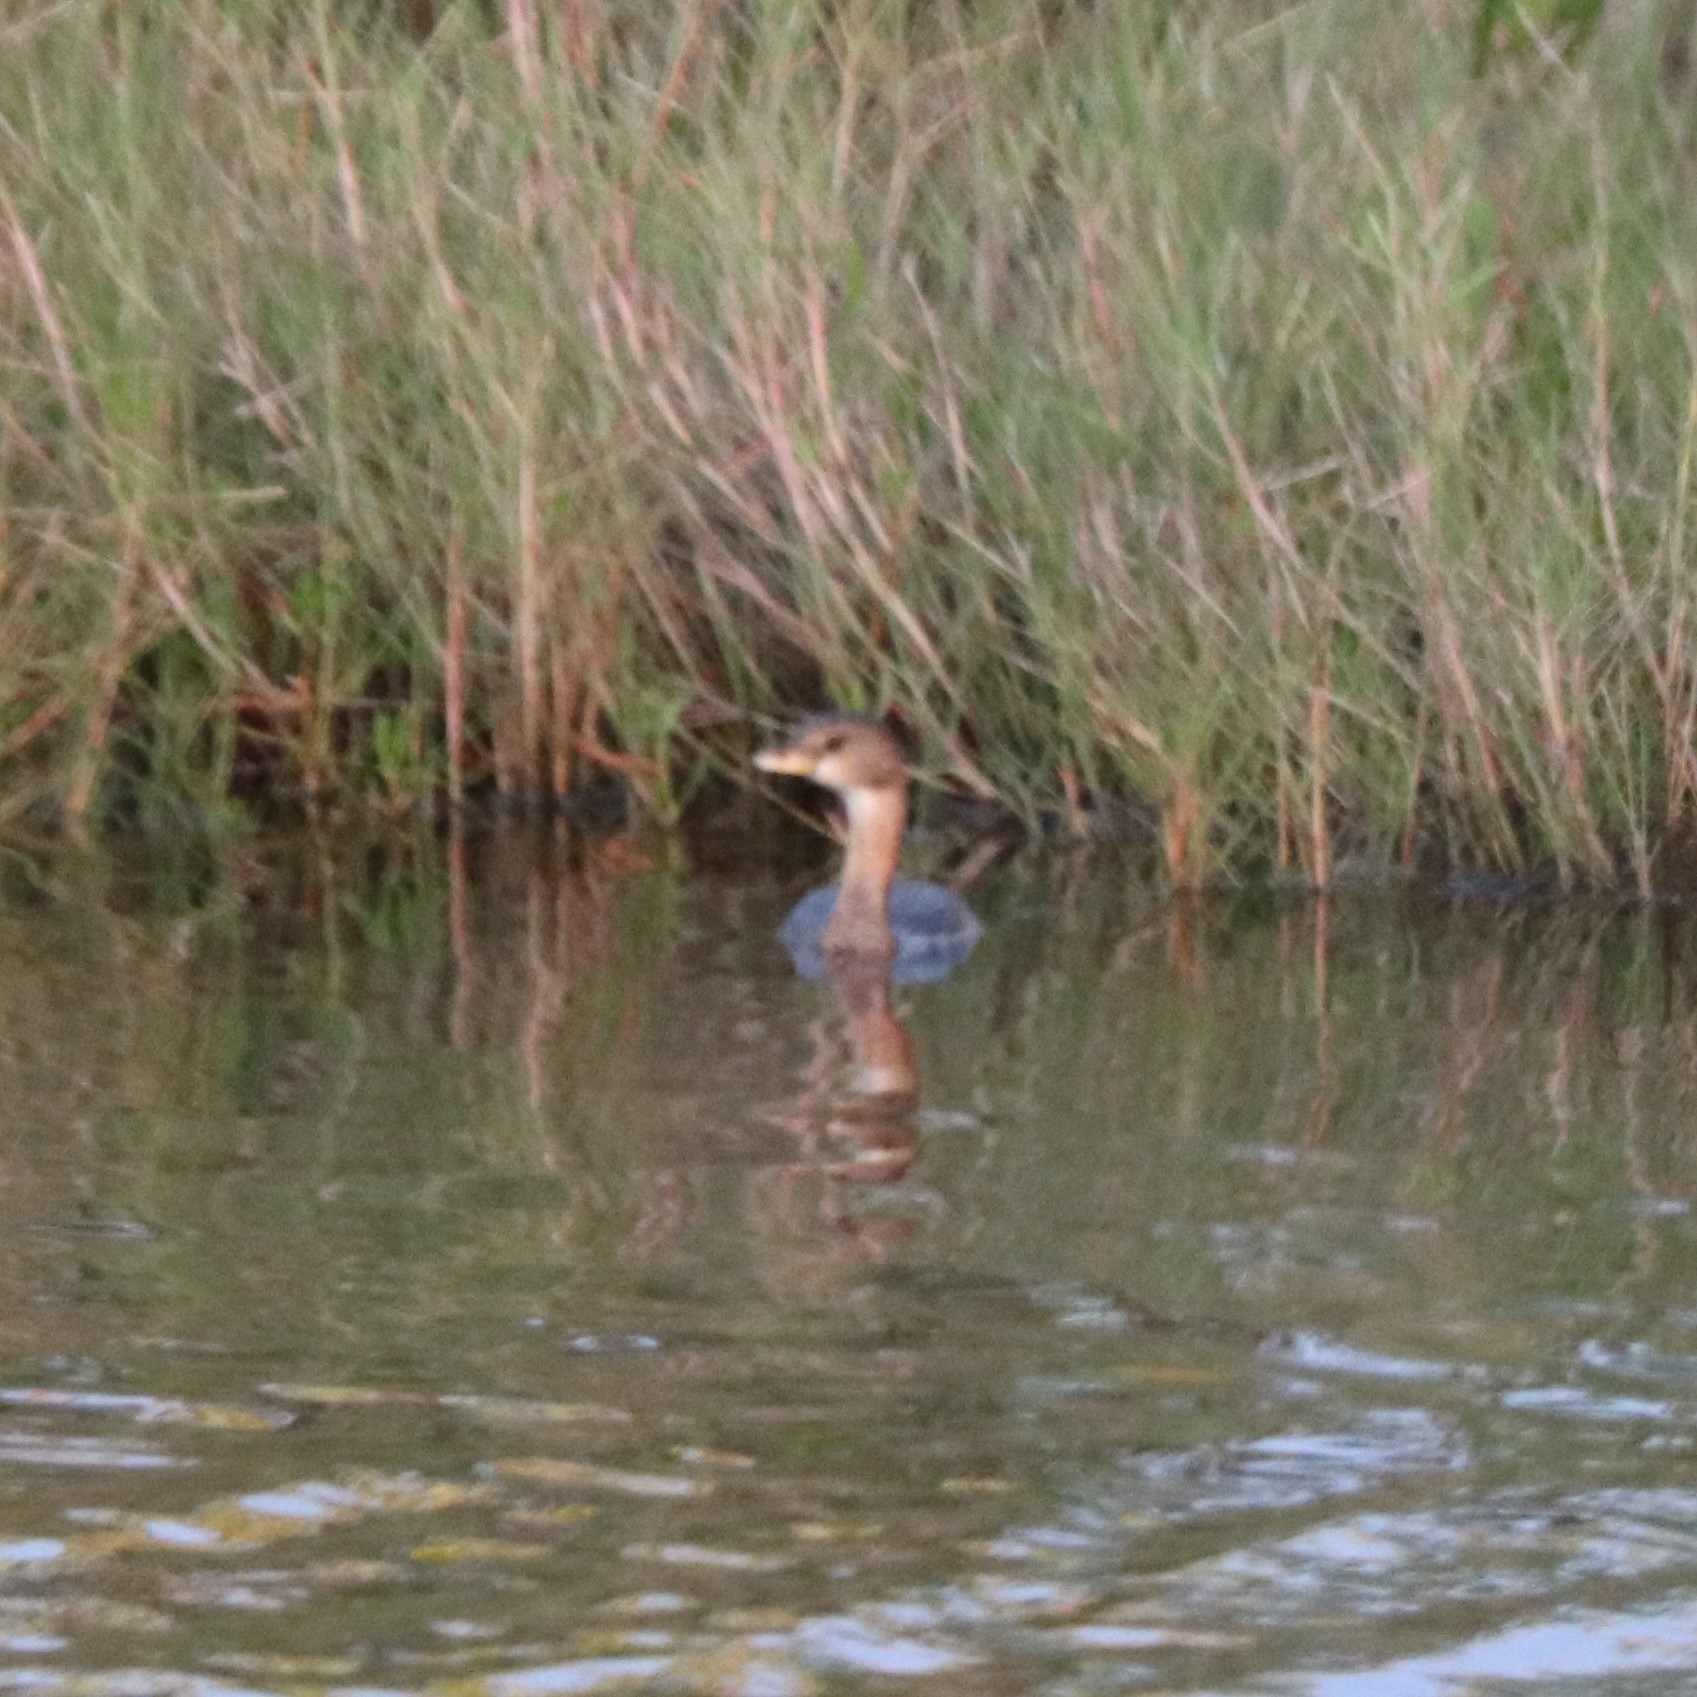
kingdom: Animalia
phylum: Chordata
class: Aves
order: Podicipediformes
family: Podicipedidae
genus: Podilymbus
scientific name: Podilymbus podiceps
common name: Pied-billed grebe
